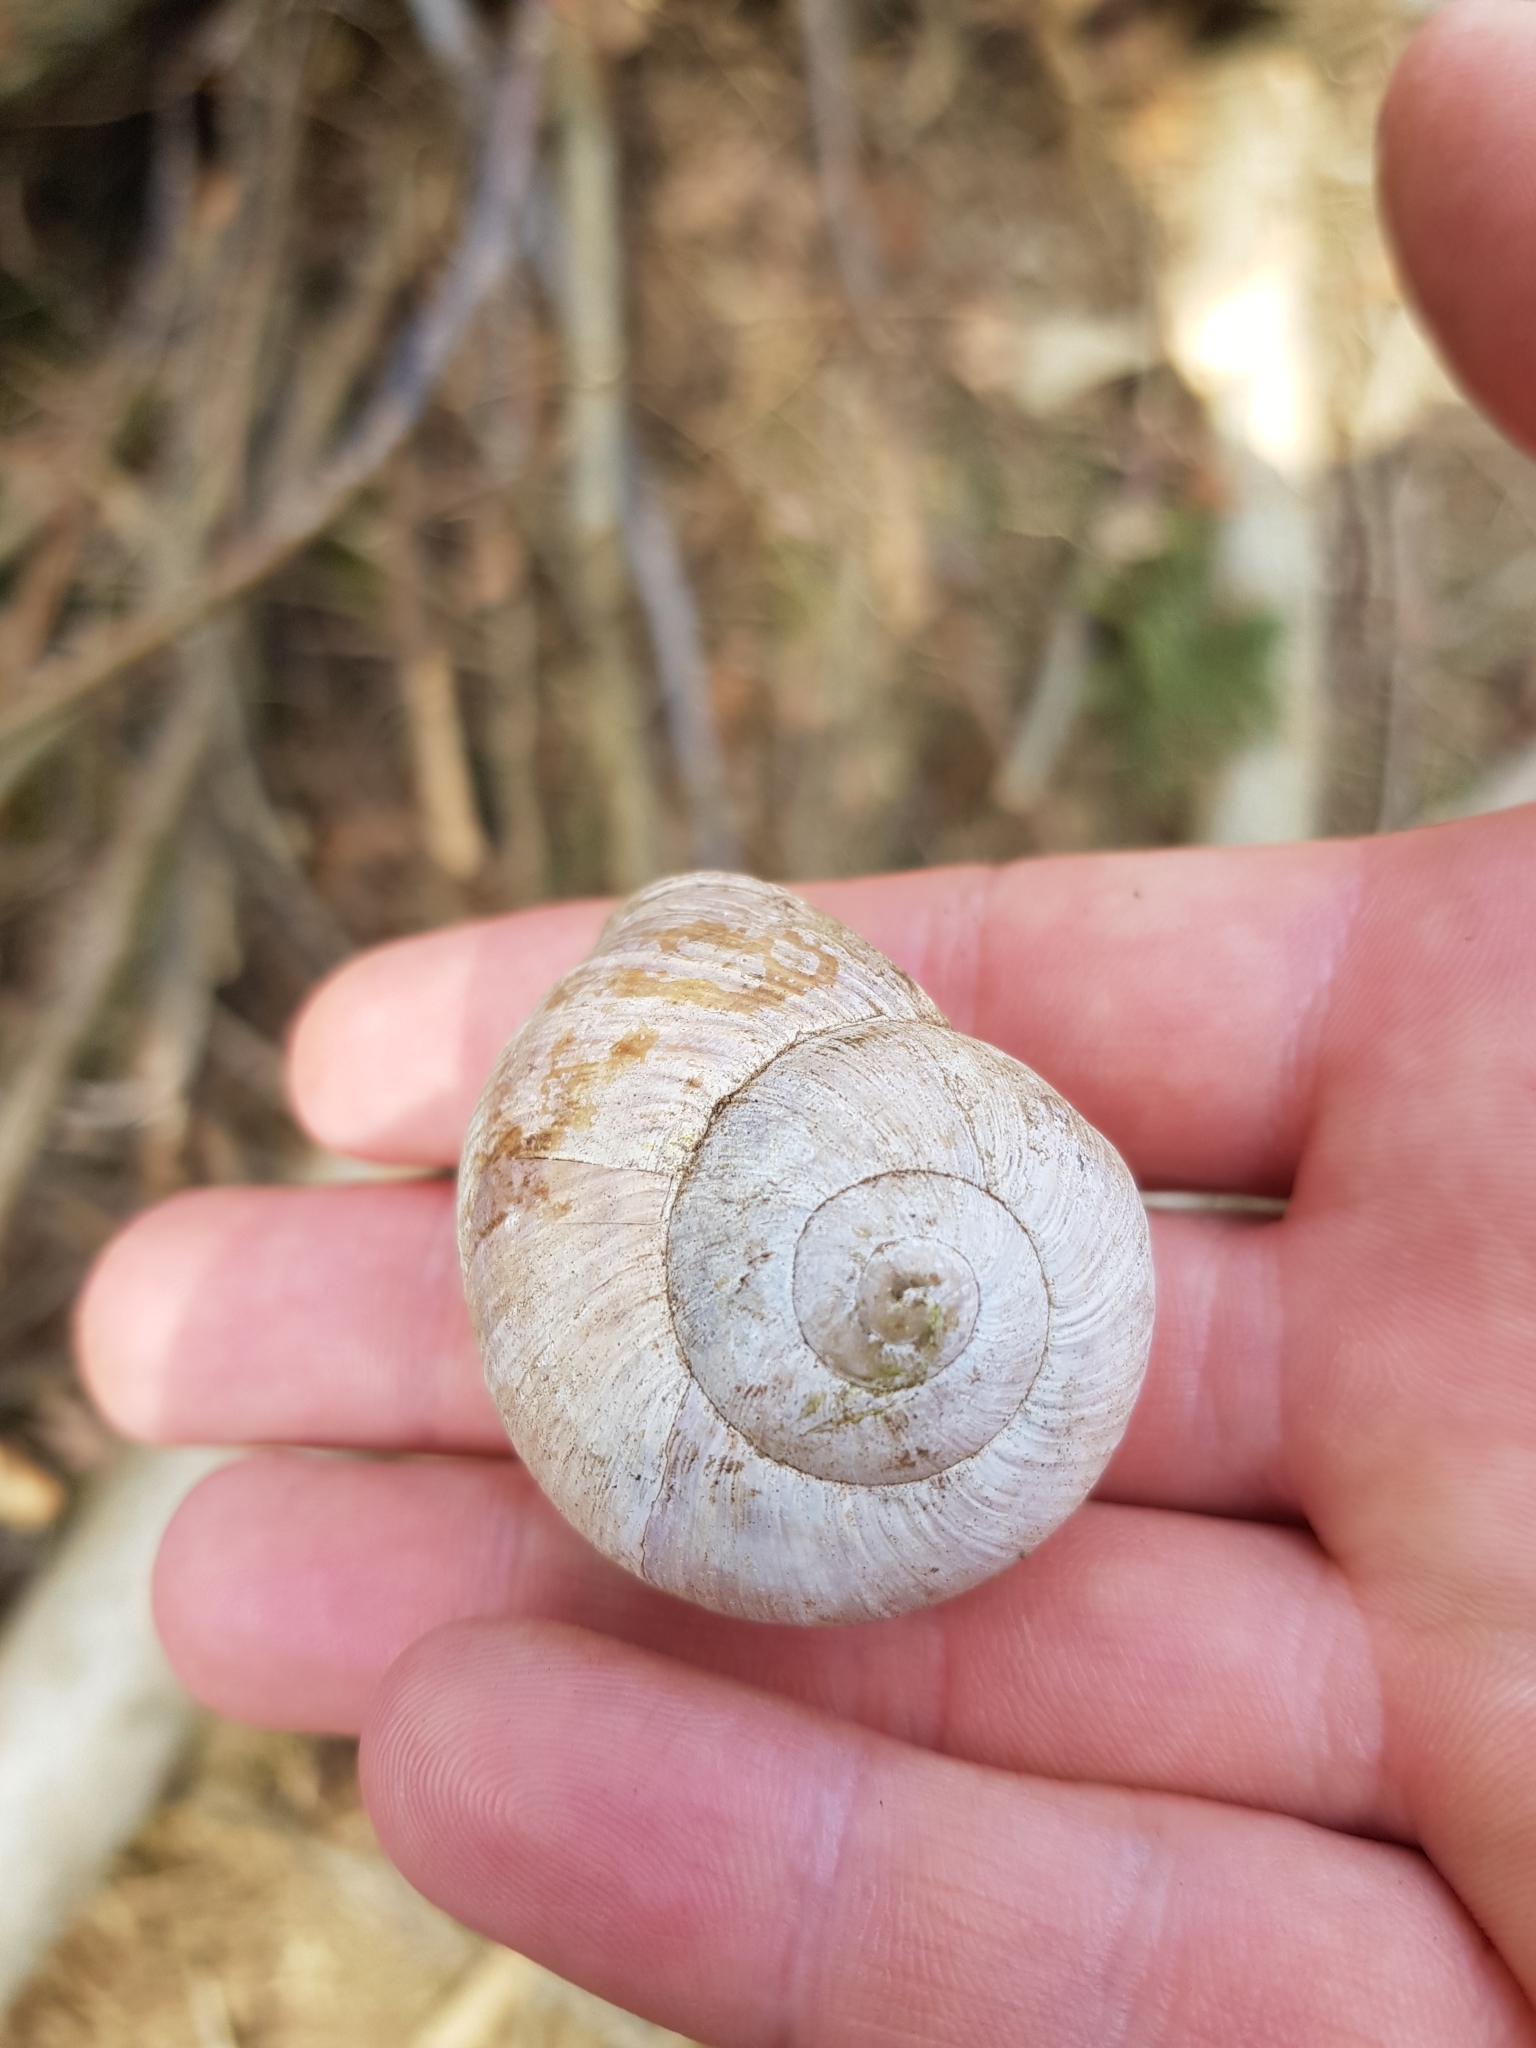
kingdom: Animalia
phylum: Mollusca
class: Gastropoda
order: Stylommatophora
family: Helicidae
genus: Helix
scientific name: Helix pomatia
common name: Roman snail
